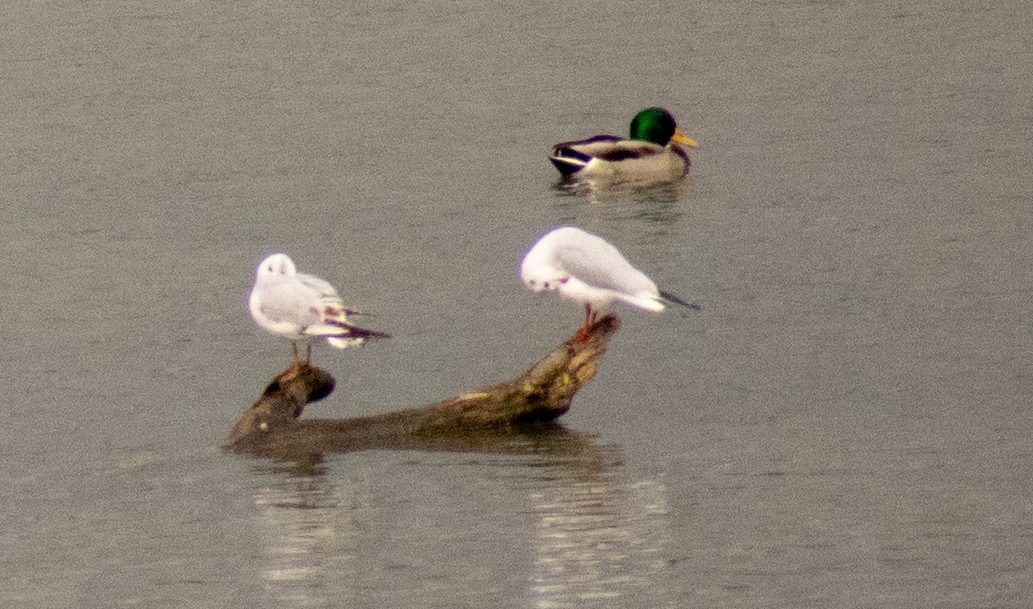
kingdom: Animalia
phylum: Chordata
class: Aves
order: Anseriformes
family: Anatidae
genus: Anas
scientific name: Anas platyrhynchos
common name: Mallard
